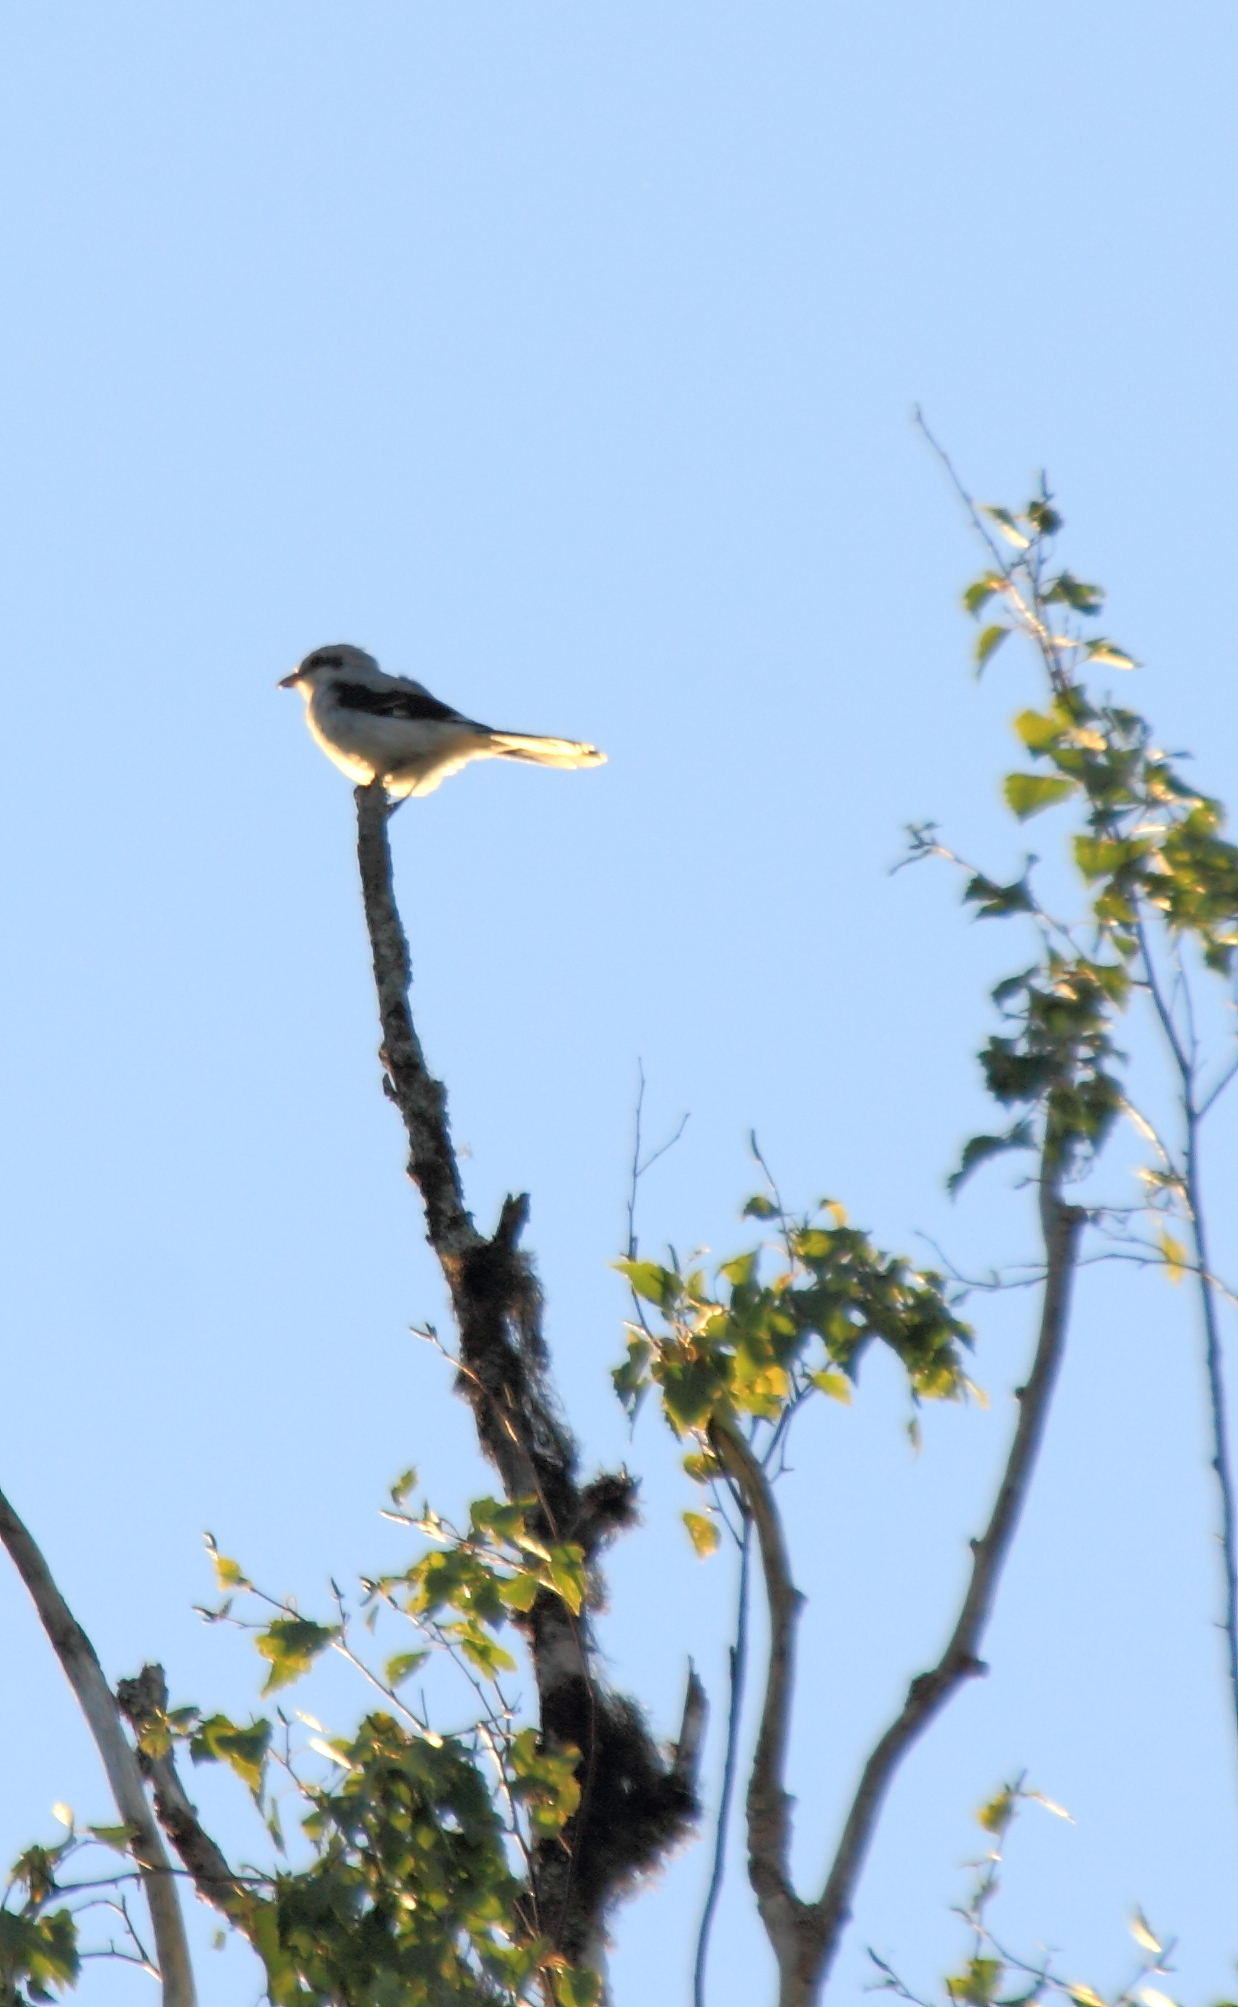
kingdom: Animalia
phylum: Chordata
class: Aves
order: Passeriformes
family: Laniidae
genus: Lanius
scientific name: Lanius excubitor
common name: Great grey shrike
